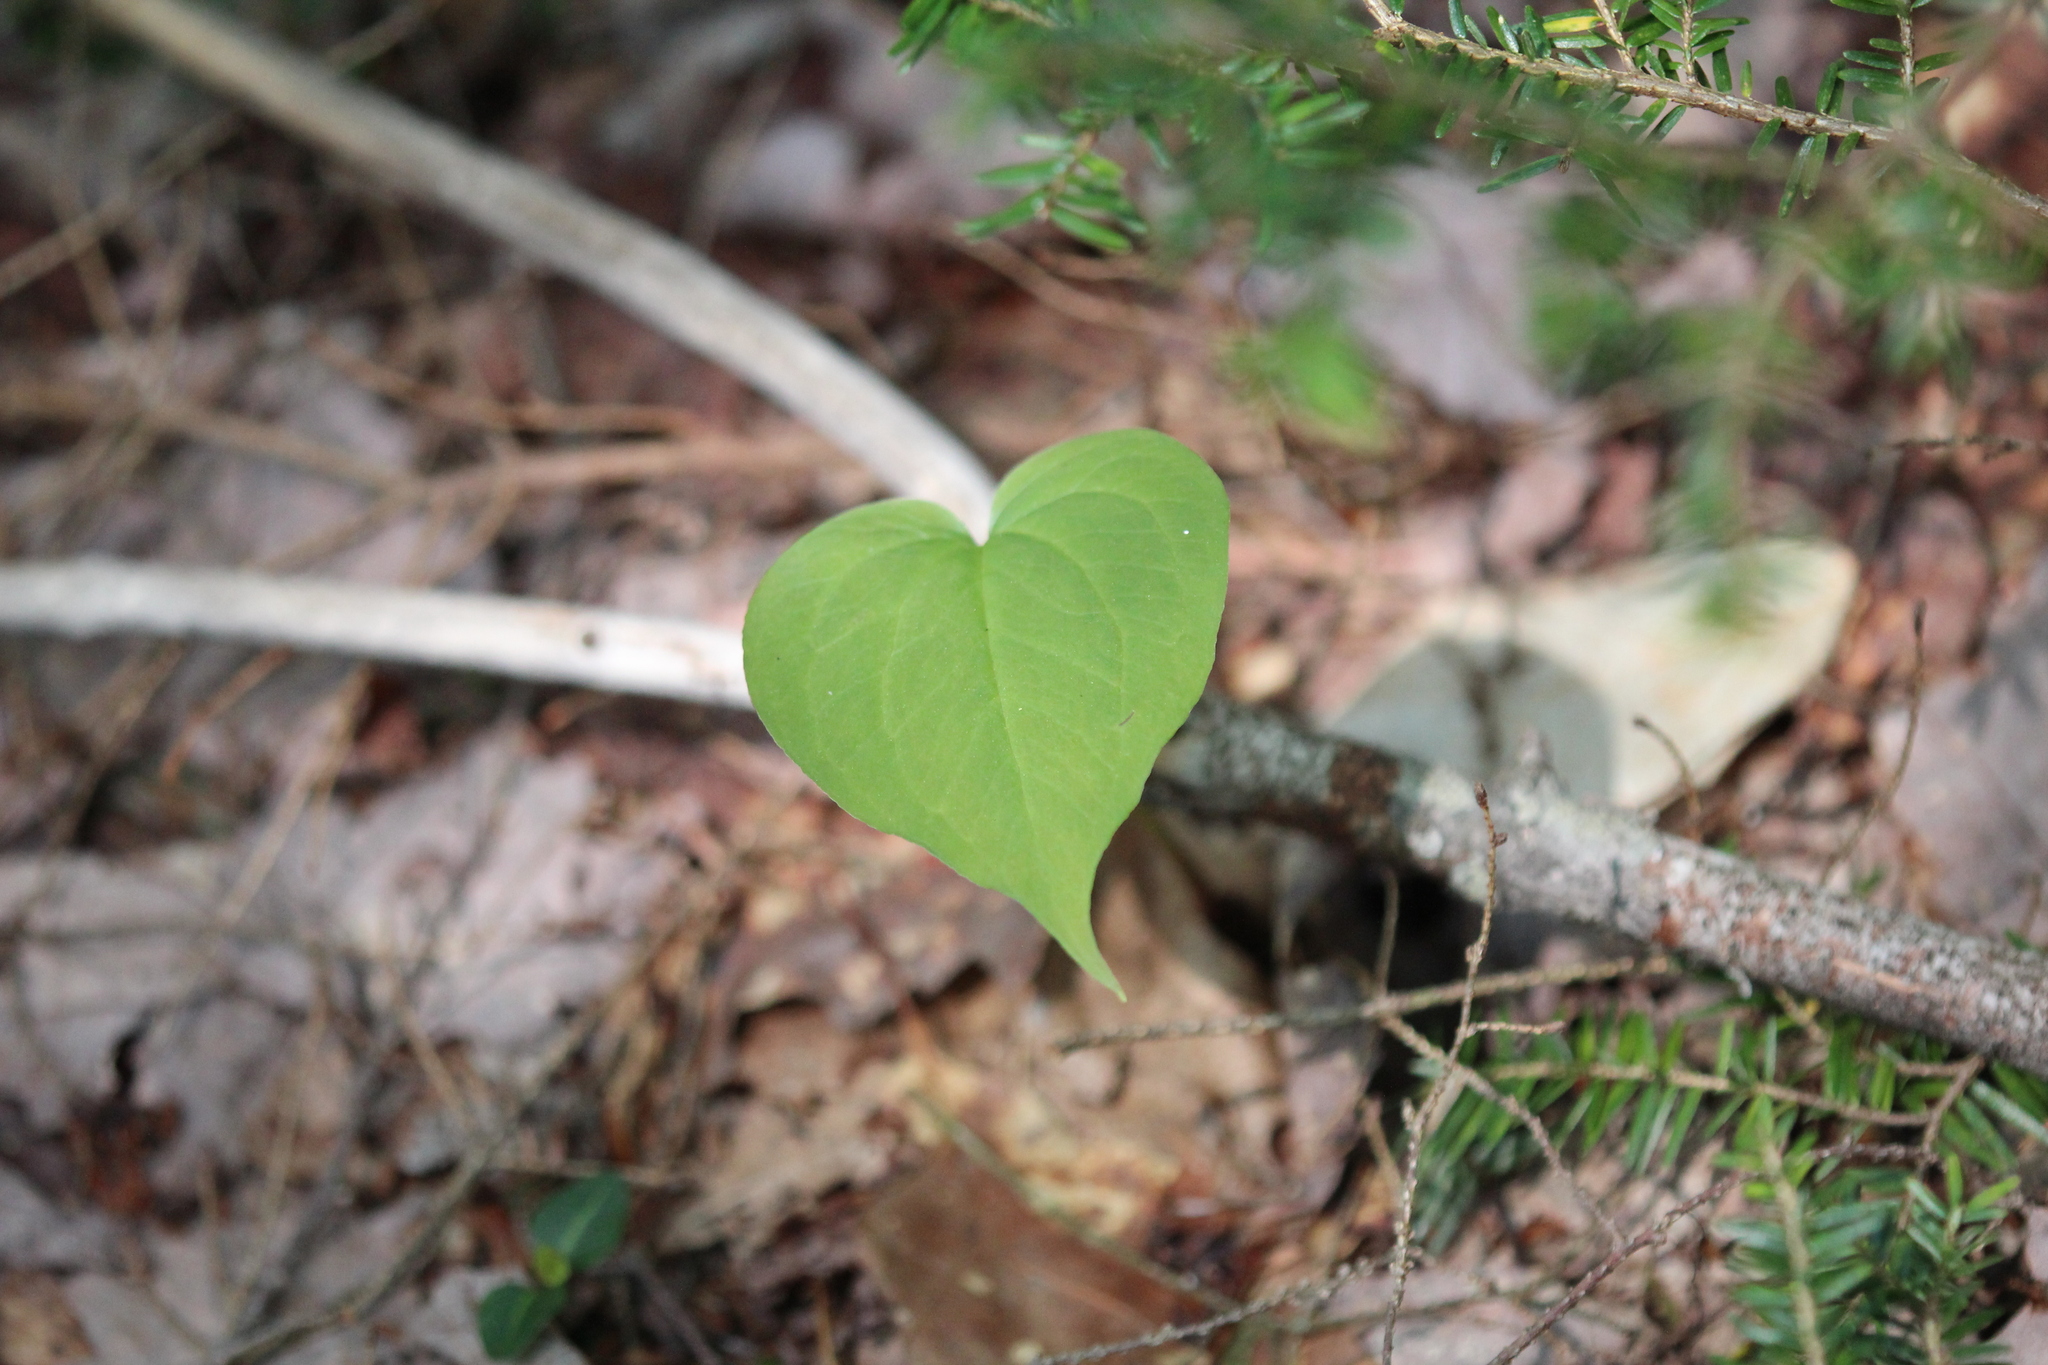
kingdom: Plantae
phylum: Tracheophyta
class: Liliopsida
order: Liliales
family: Melanthiaceae
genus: Trillium
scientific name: Trillium undulatum
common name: Paint trillium
